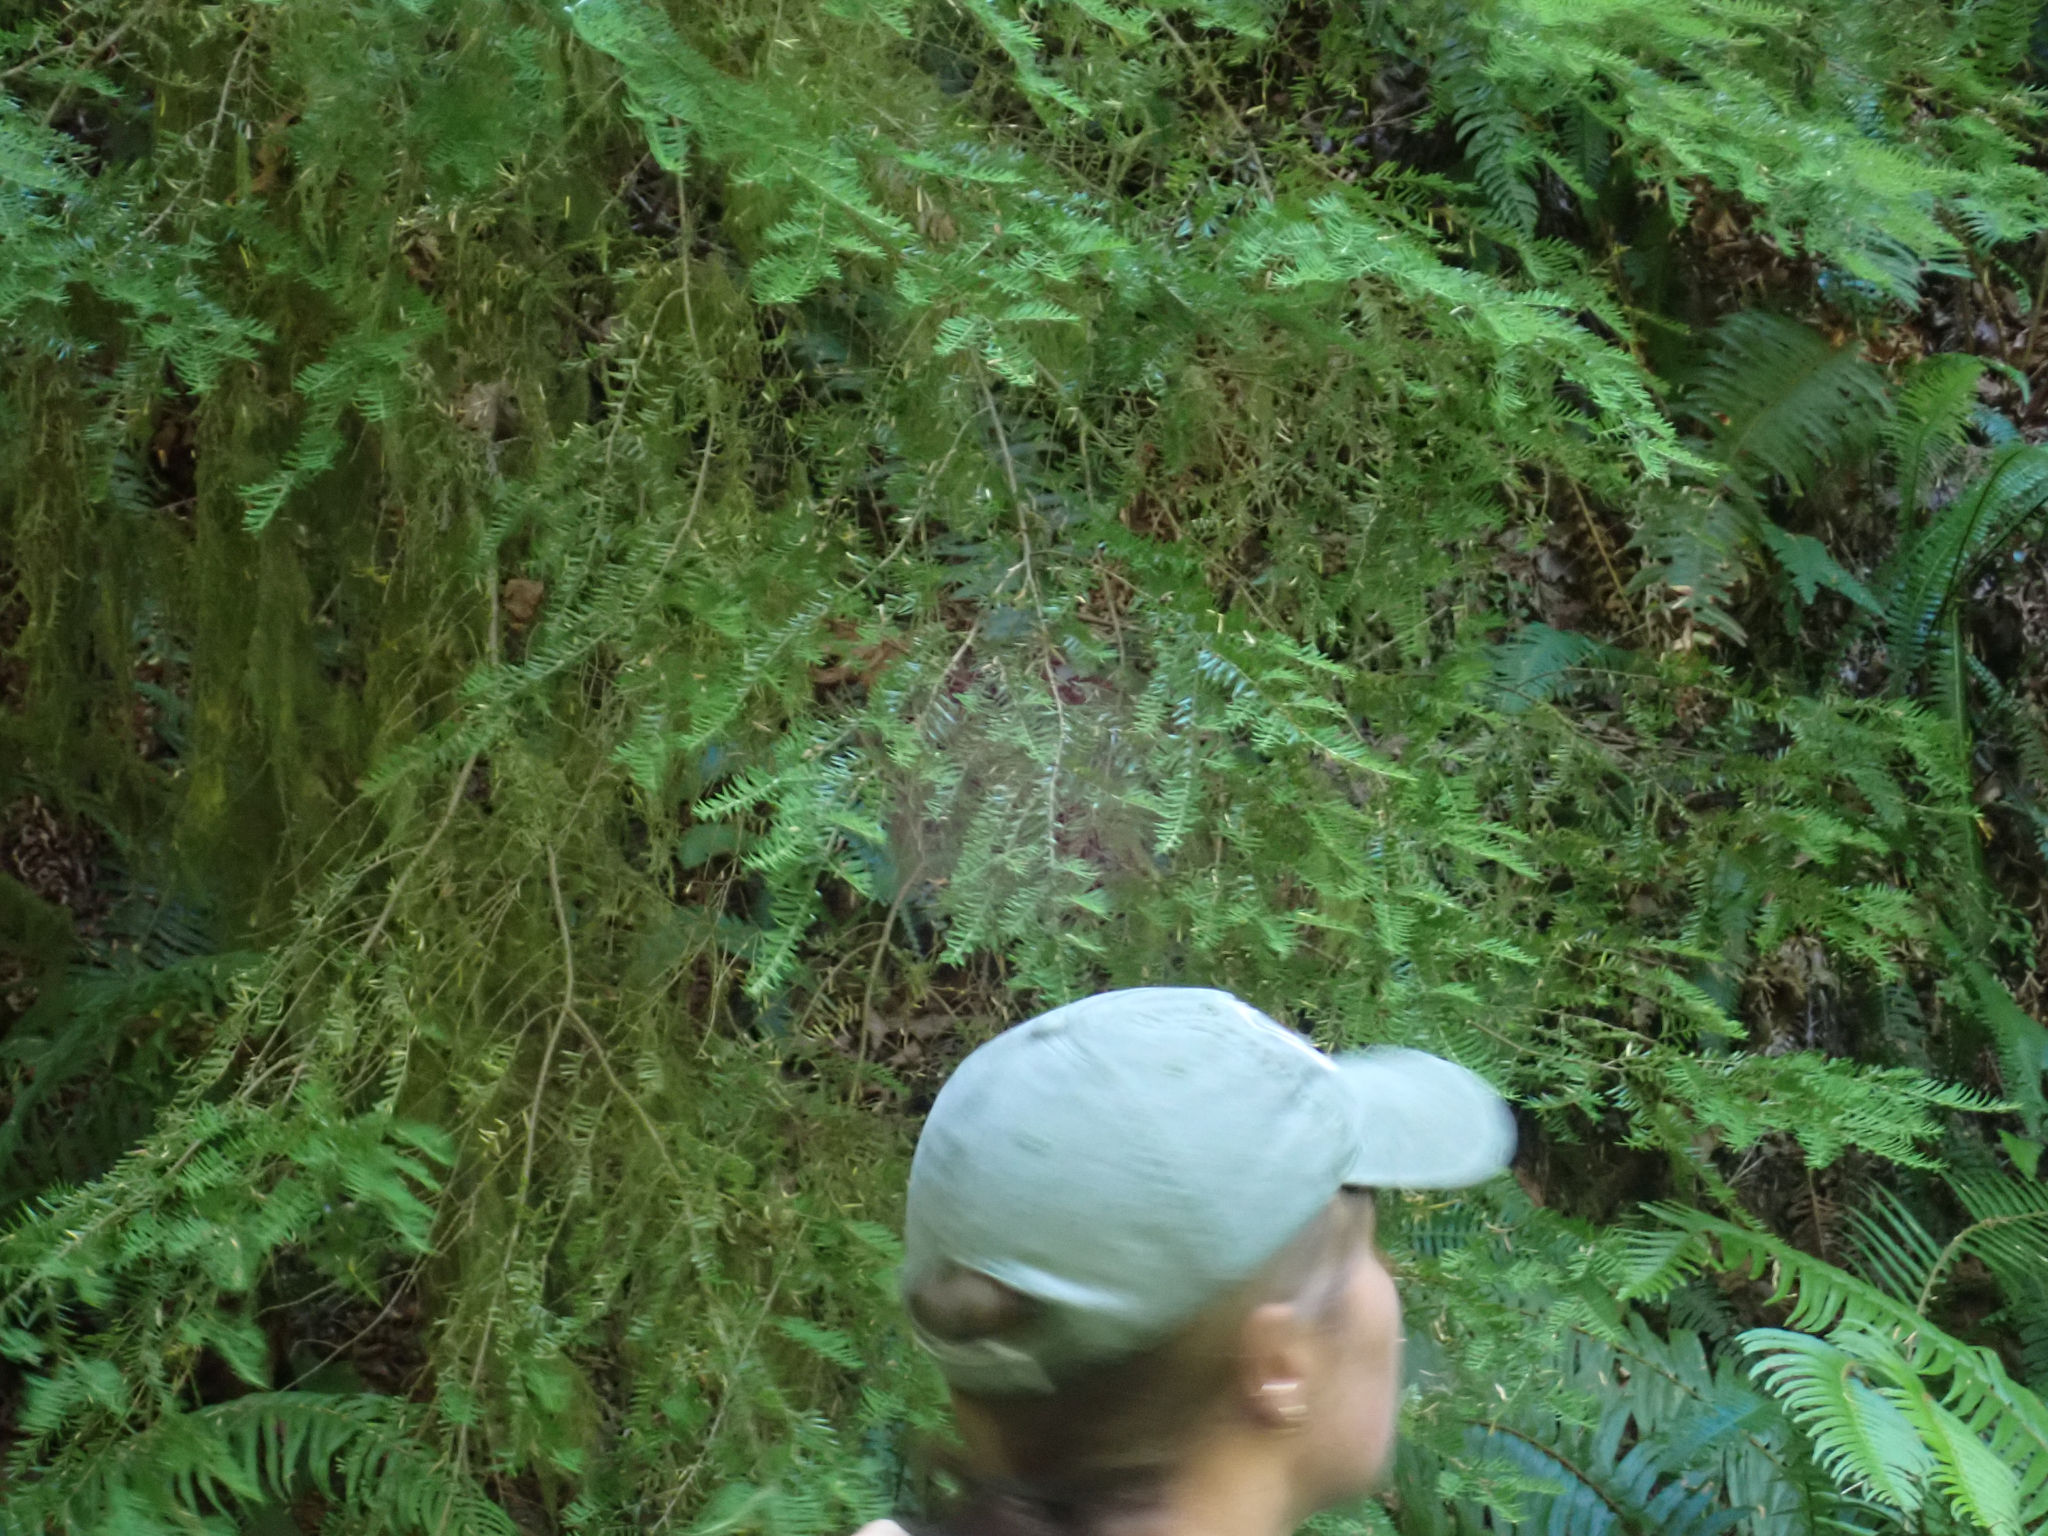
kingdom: Plantae
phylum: Tracheophyta
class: Pinopsida
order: Pinales
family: Pinaceae
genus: Tsuga
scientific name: Tsuga heterophylla
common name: Western hemlock
